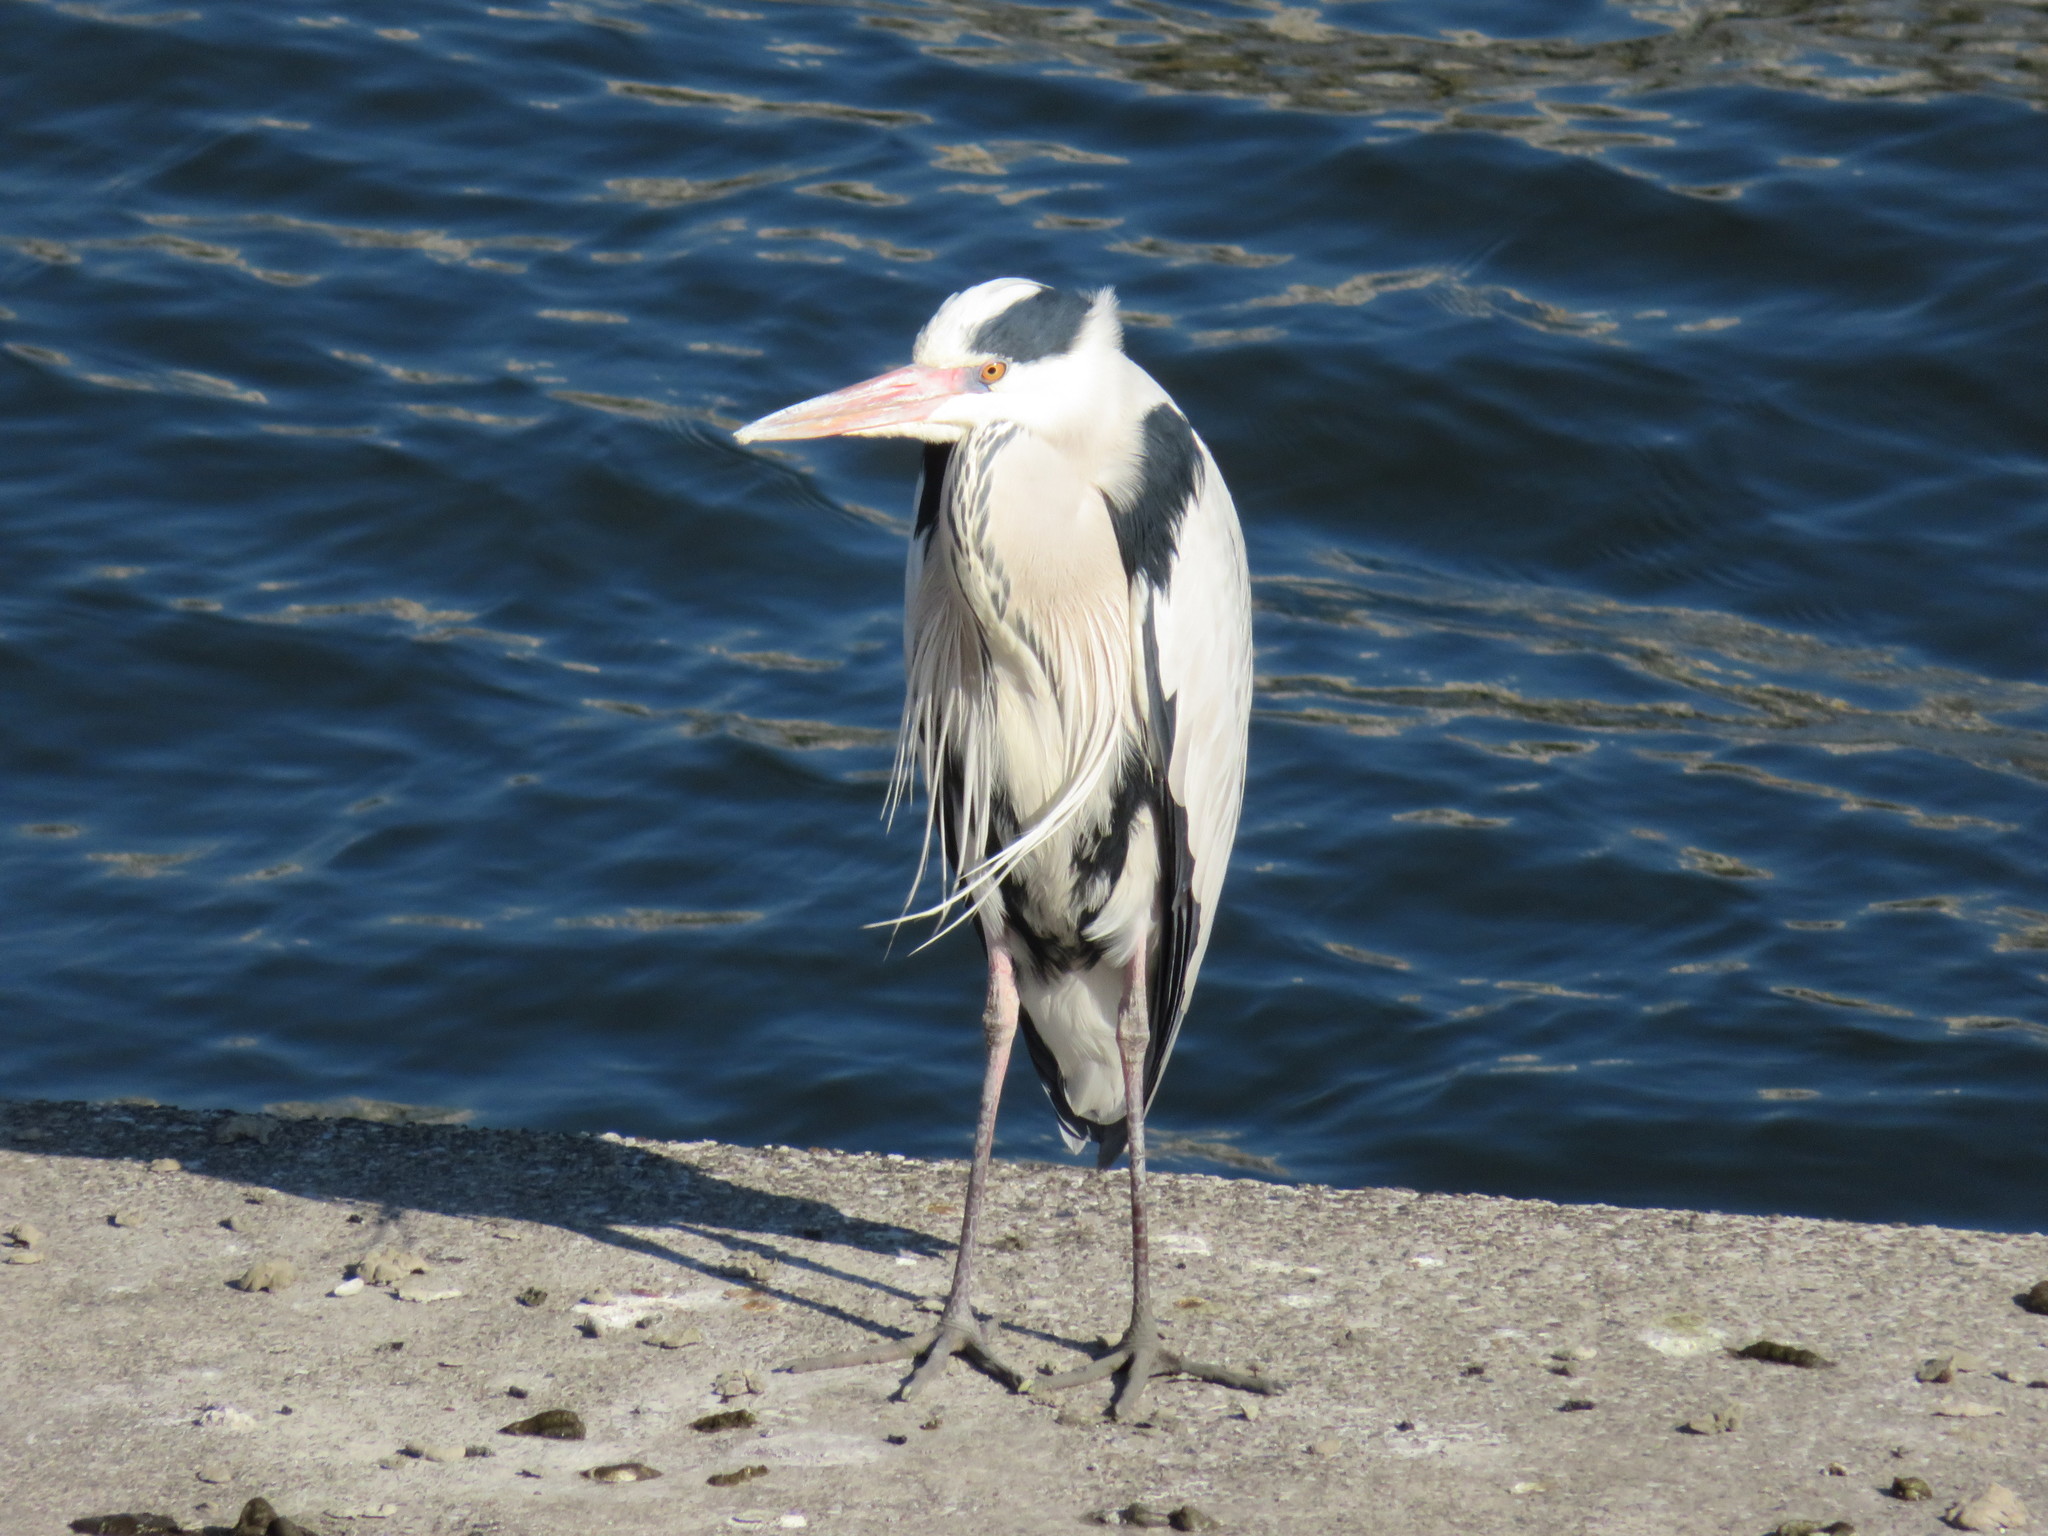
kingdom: Animalia
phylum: Chordata
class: Aves
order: Pelecaniformes
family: Ardeidae
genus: Ardea
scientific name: Ardea cinerea
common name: Grey heron
